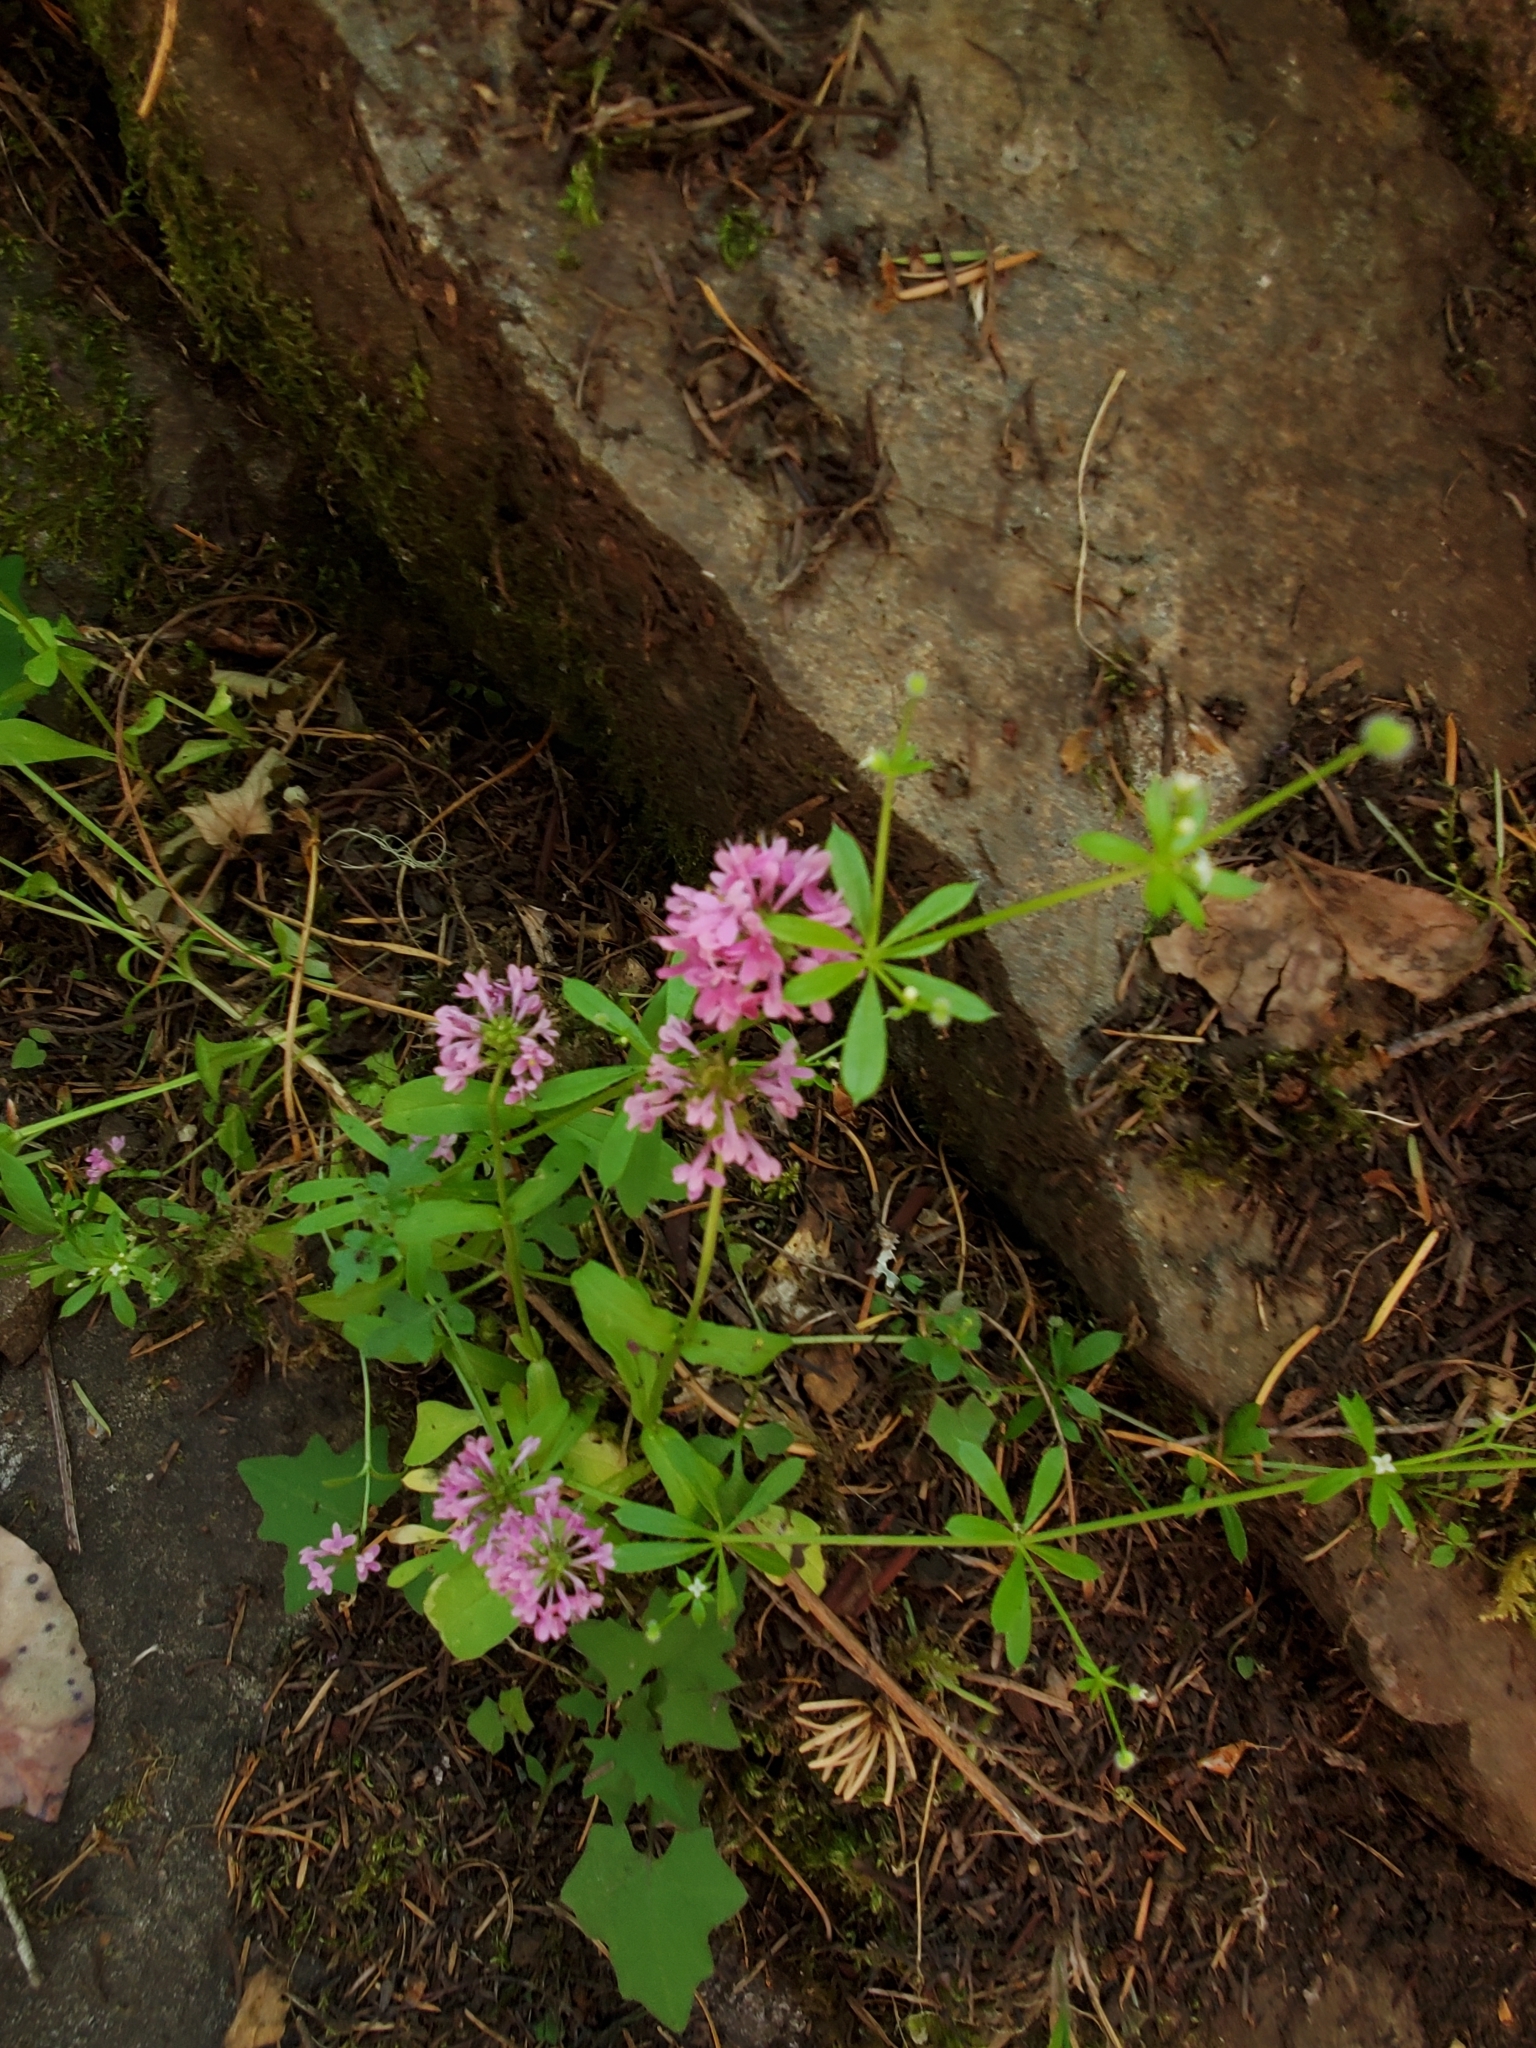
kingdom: Plantae
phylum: Tracheophyta
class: Magnoliopsida
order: Dipsacales
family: Caprifoliaceae
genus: Plectritis
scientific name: Plectritis congesta
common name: Pink plectritis
